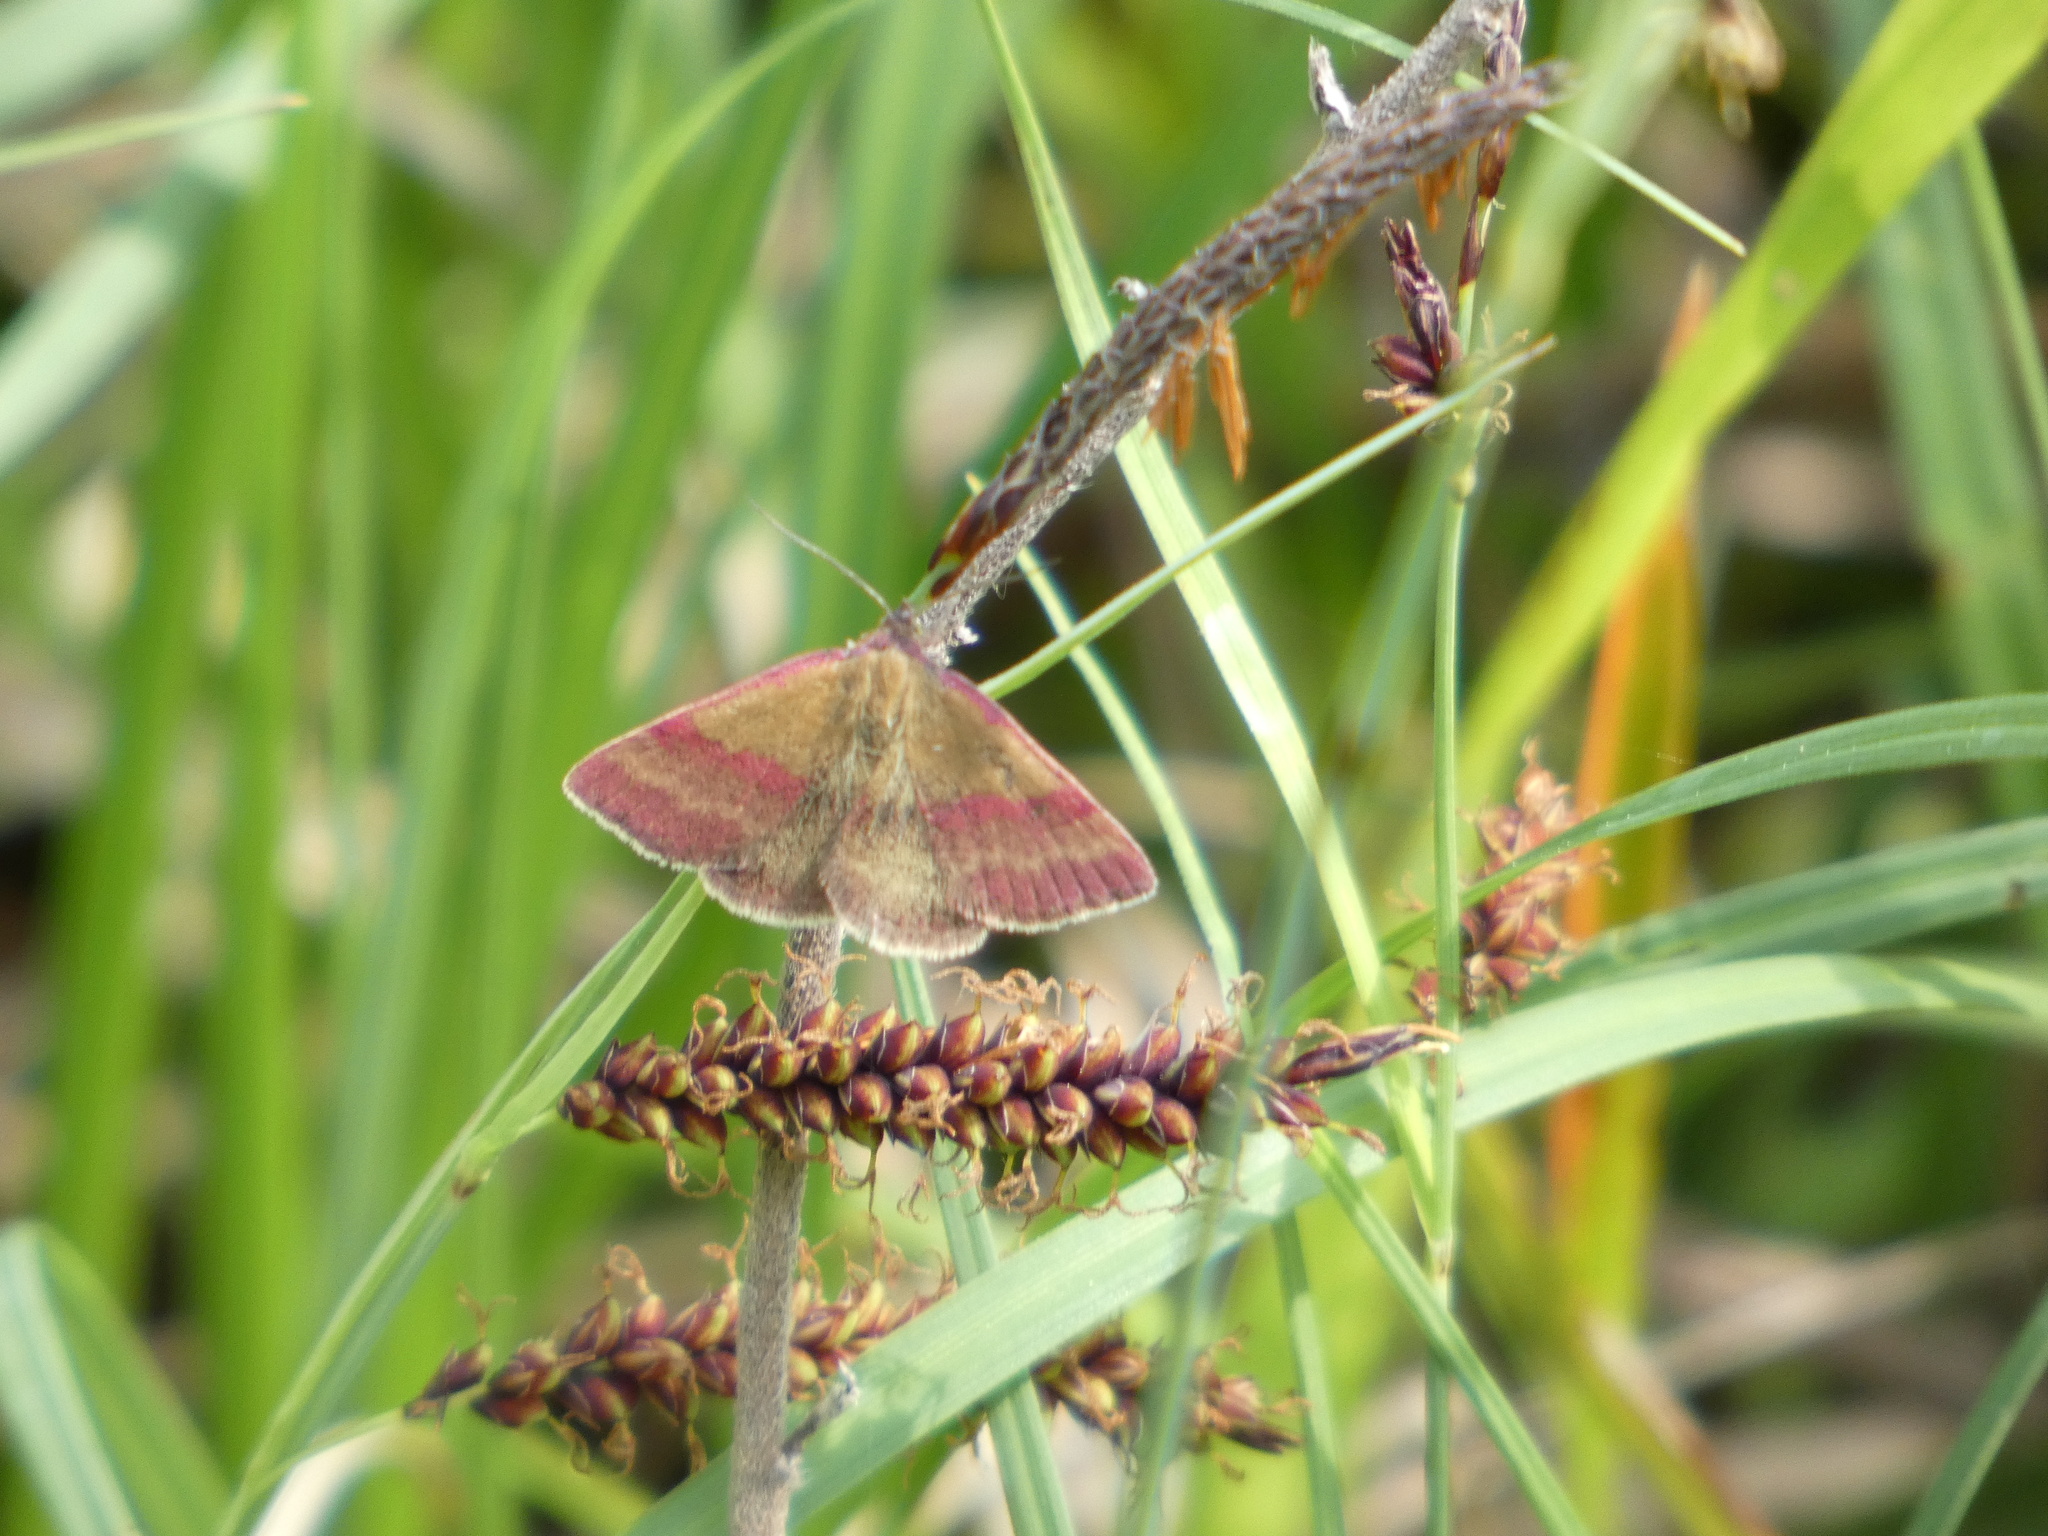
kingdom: Animalia
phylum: Arthropoda
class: Insecta
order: Lepidoptera
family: Erebidae
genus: Phytometra
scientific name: Phytometra viridaria
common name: Small purple-barred
